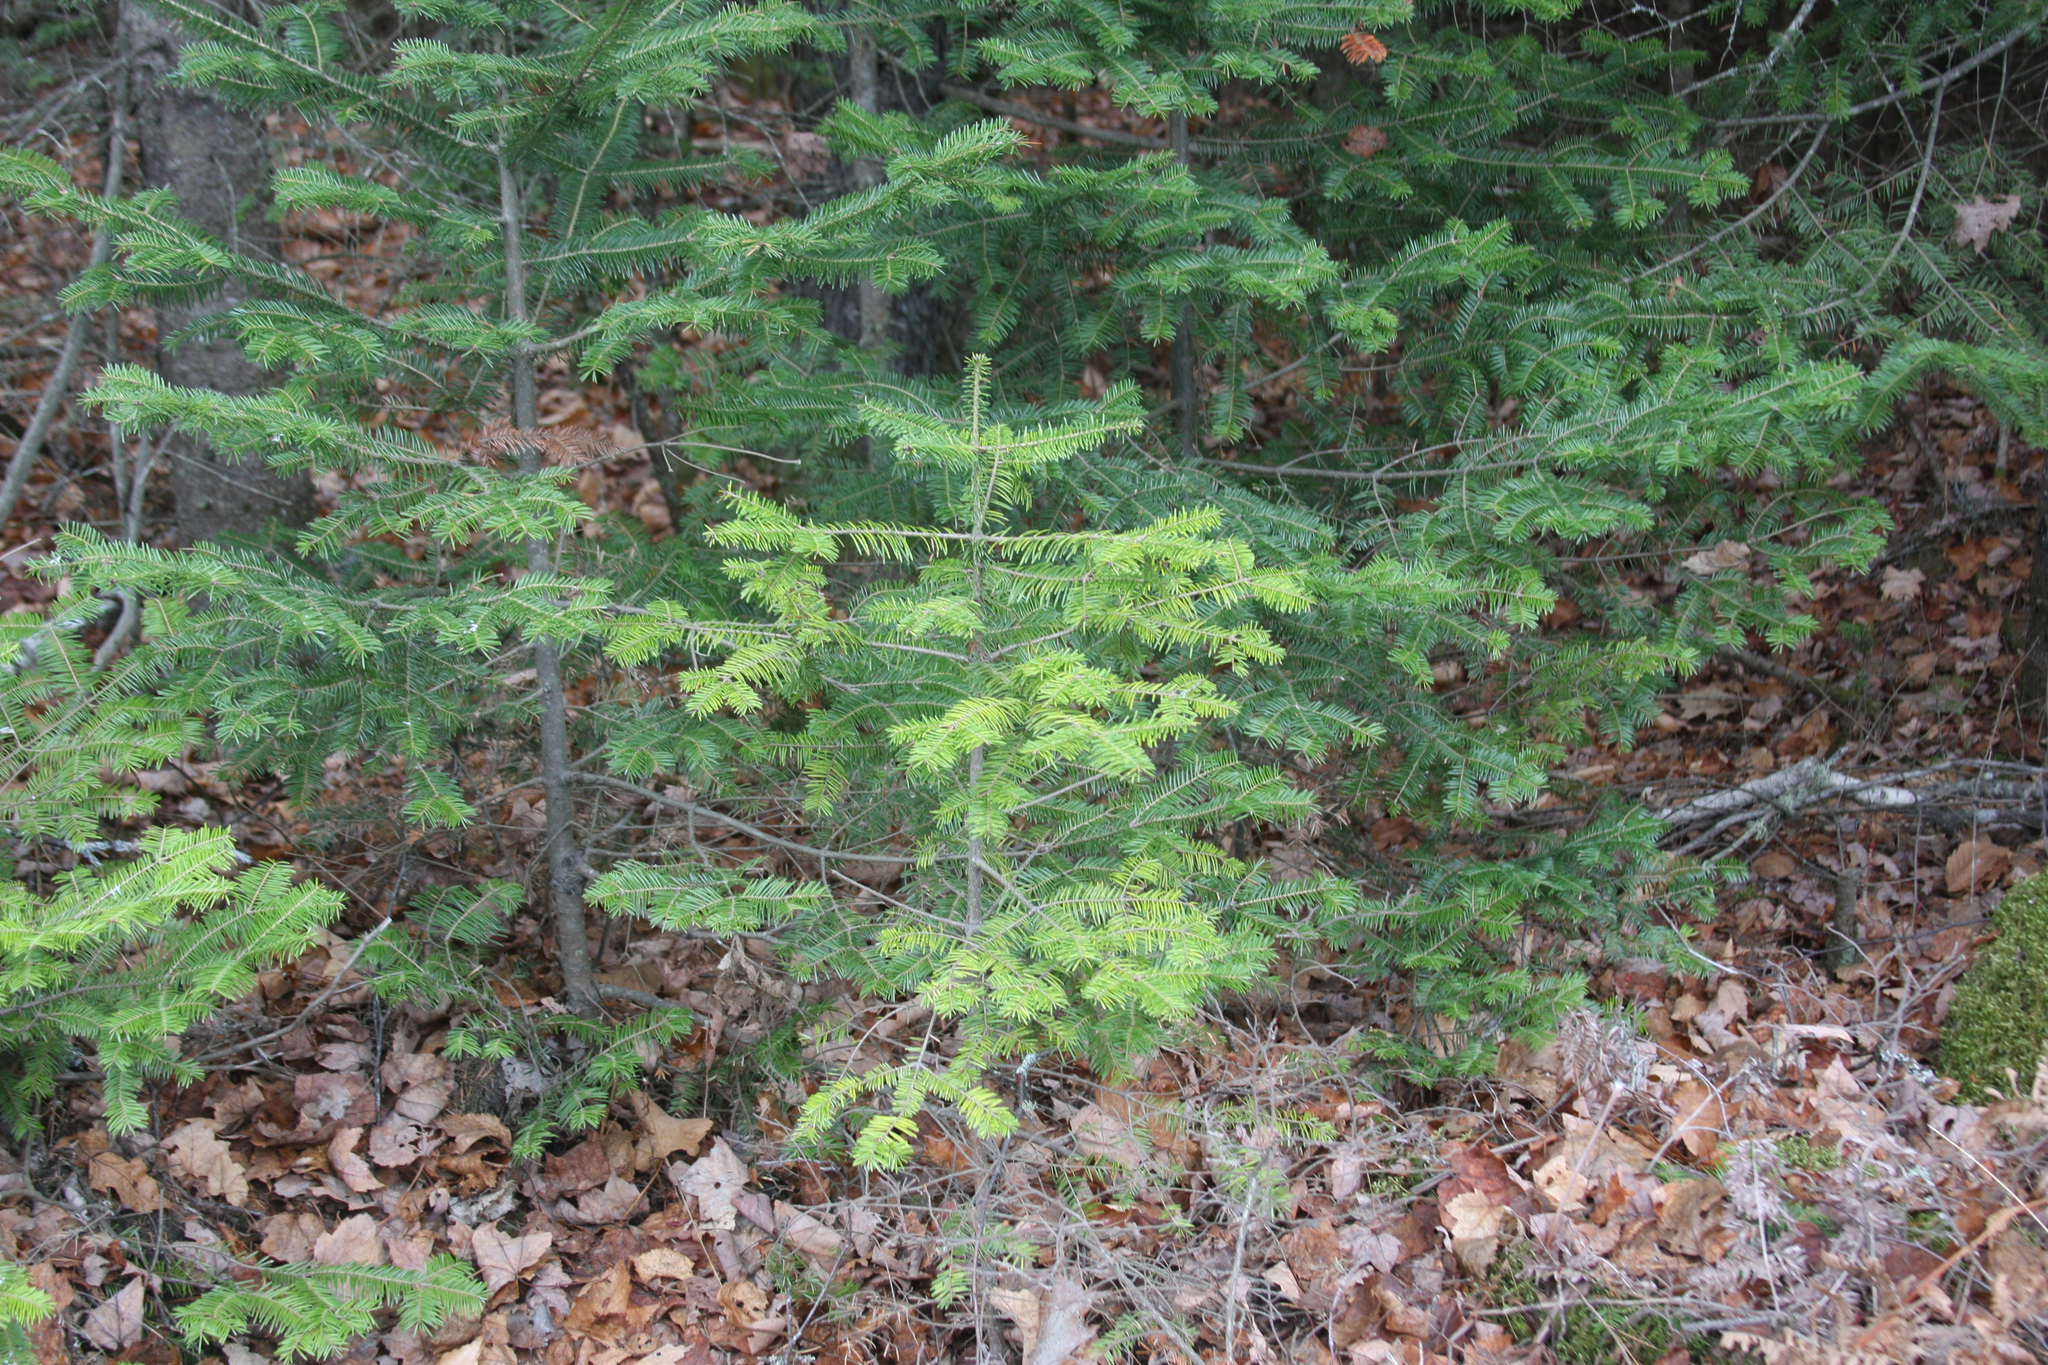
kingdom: Plantae
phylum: Tracheophyta
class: Pinopsida
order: Pinales
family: Pinaceae
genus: Abies
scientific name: Abies balsamea
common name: Balsam fir
